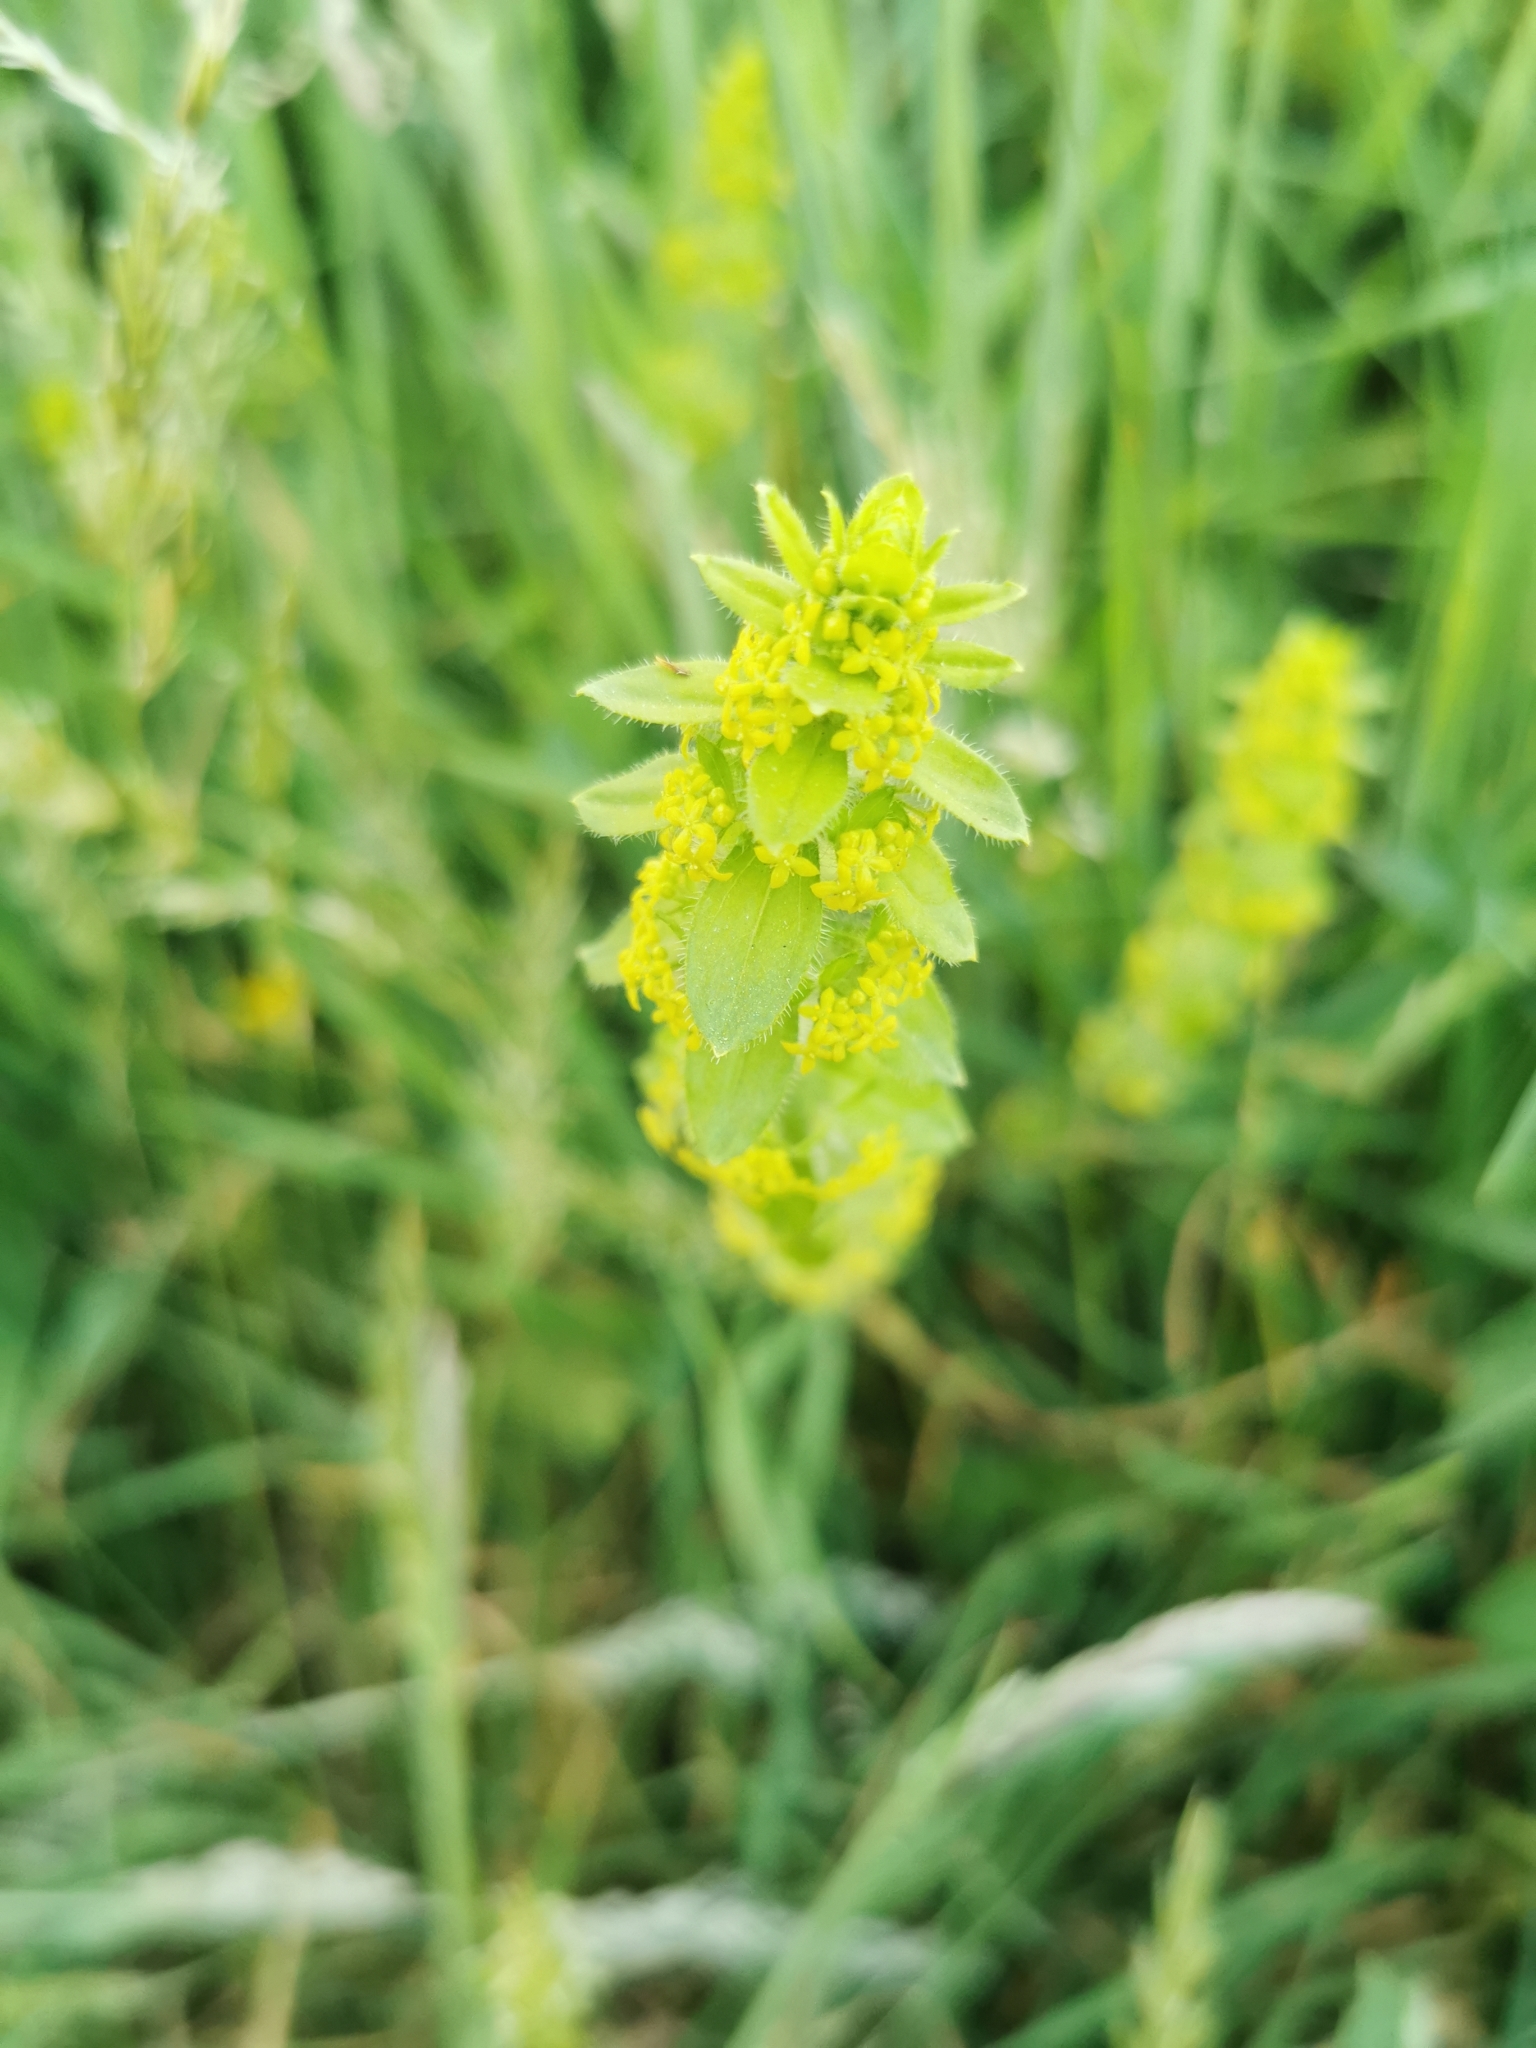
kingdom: Plantae
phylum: Tracheophyta
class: Magnoliopsida
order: Gentianales
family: Rubiaceae
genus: Cruciata
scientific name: Cruciata laevipes
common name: Crosswort
